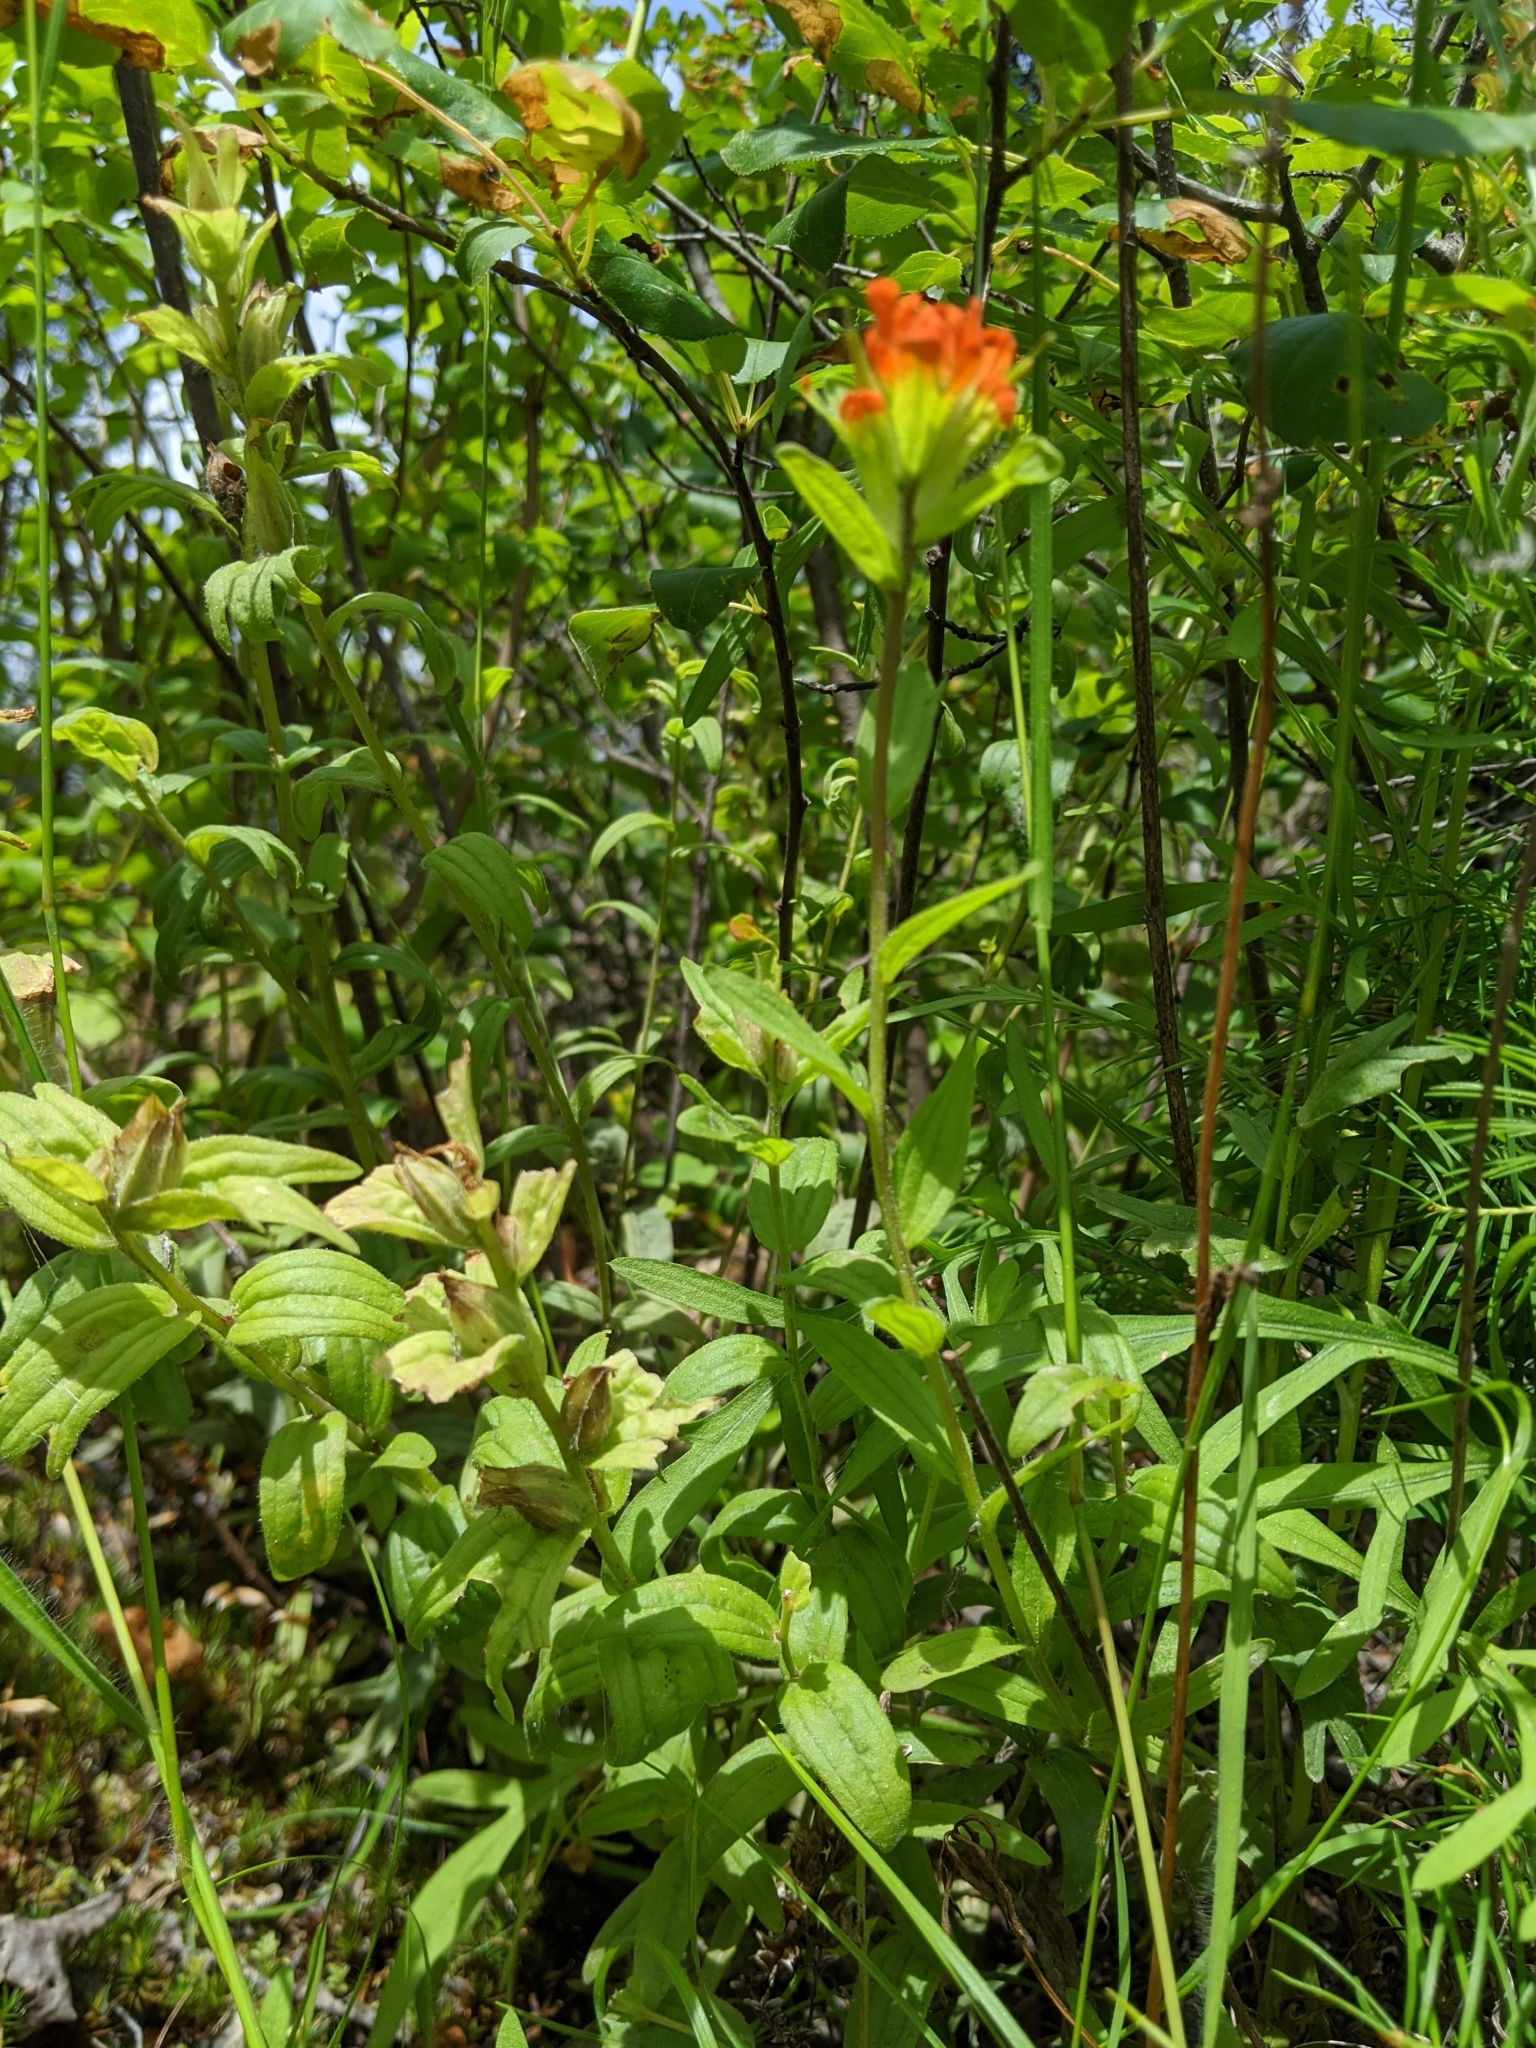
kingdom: Plantae
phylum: Tracheophyta
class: Magnoliopsida
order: Lamiales
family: Orobanchaceae
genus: Castilleja
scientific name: Castilleja hispida
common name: Bristly paintbrush
